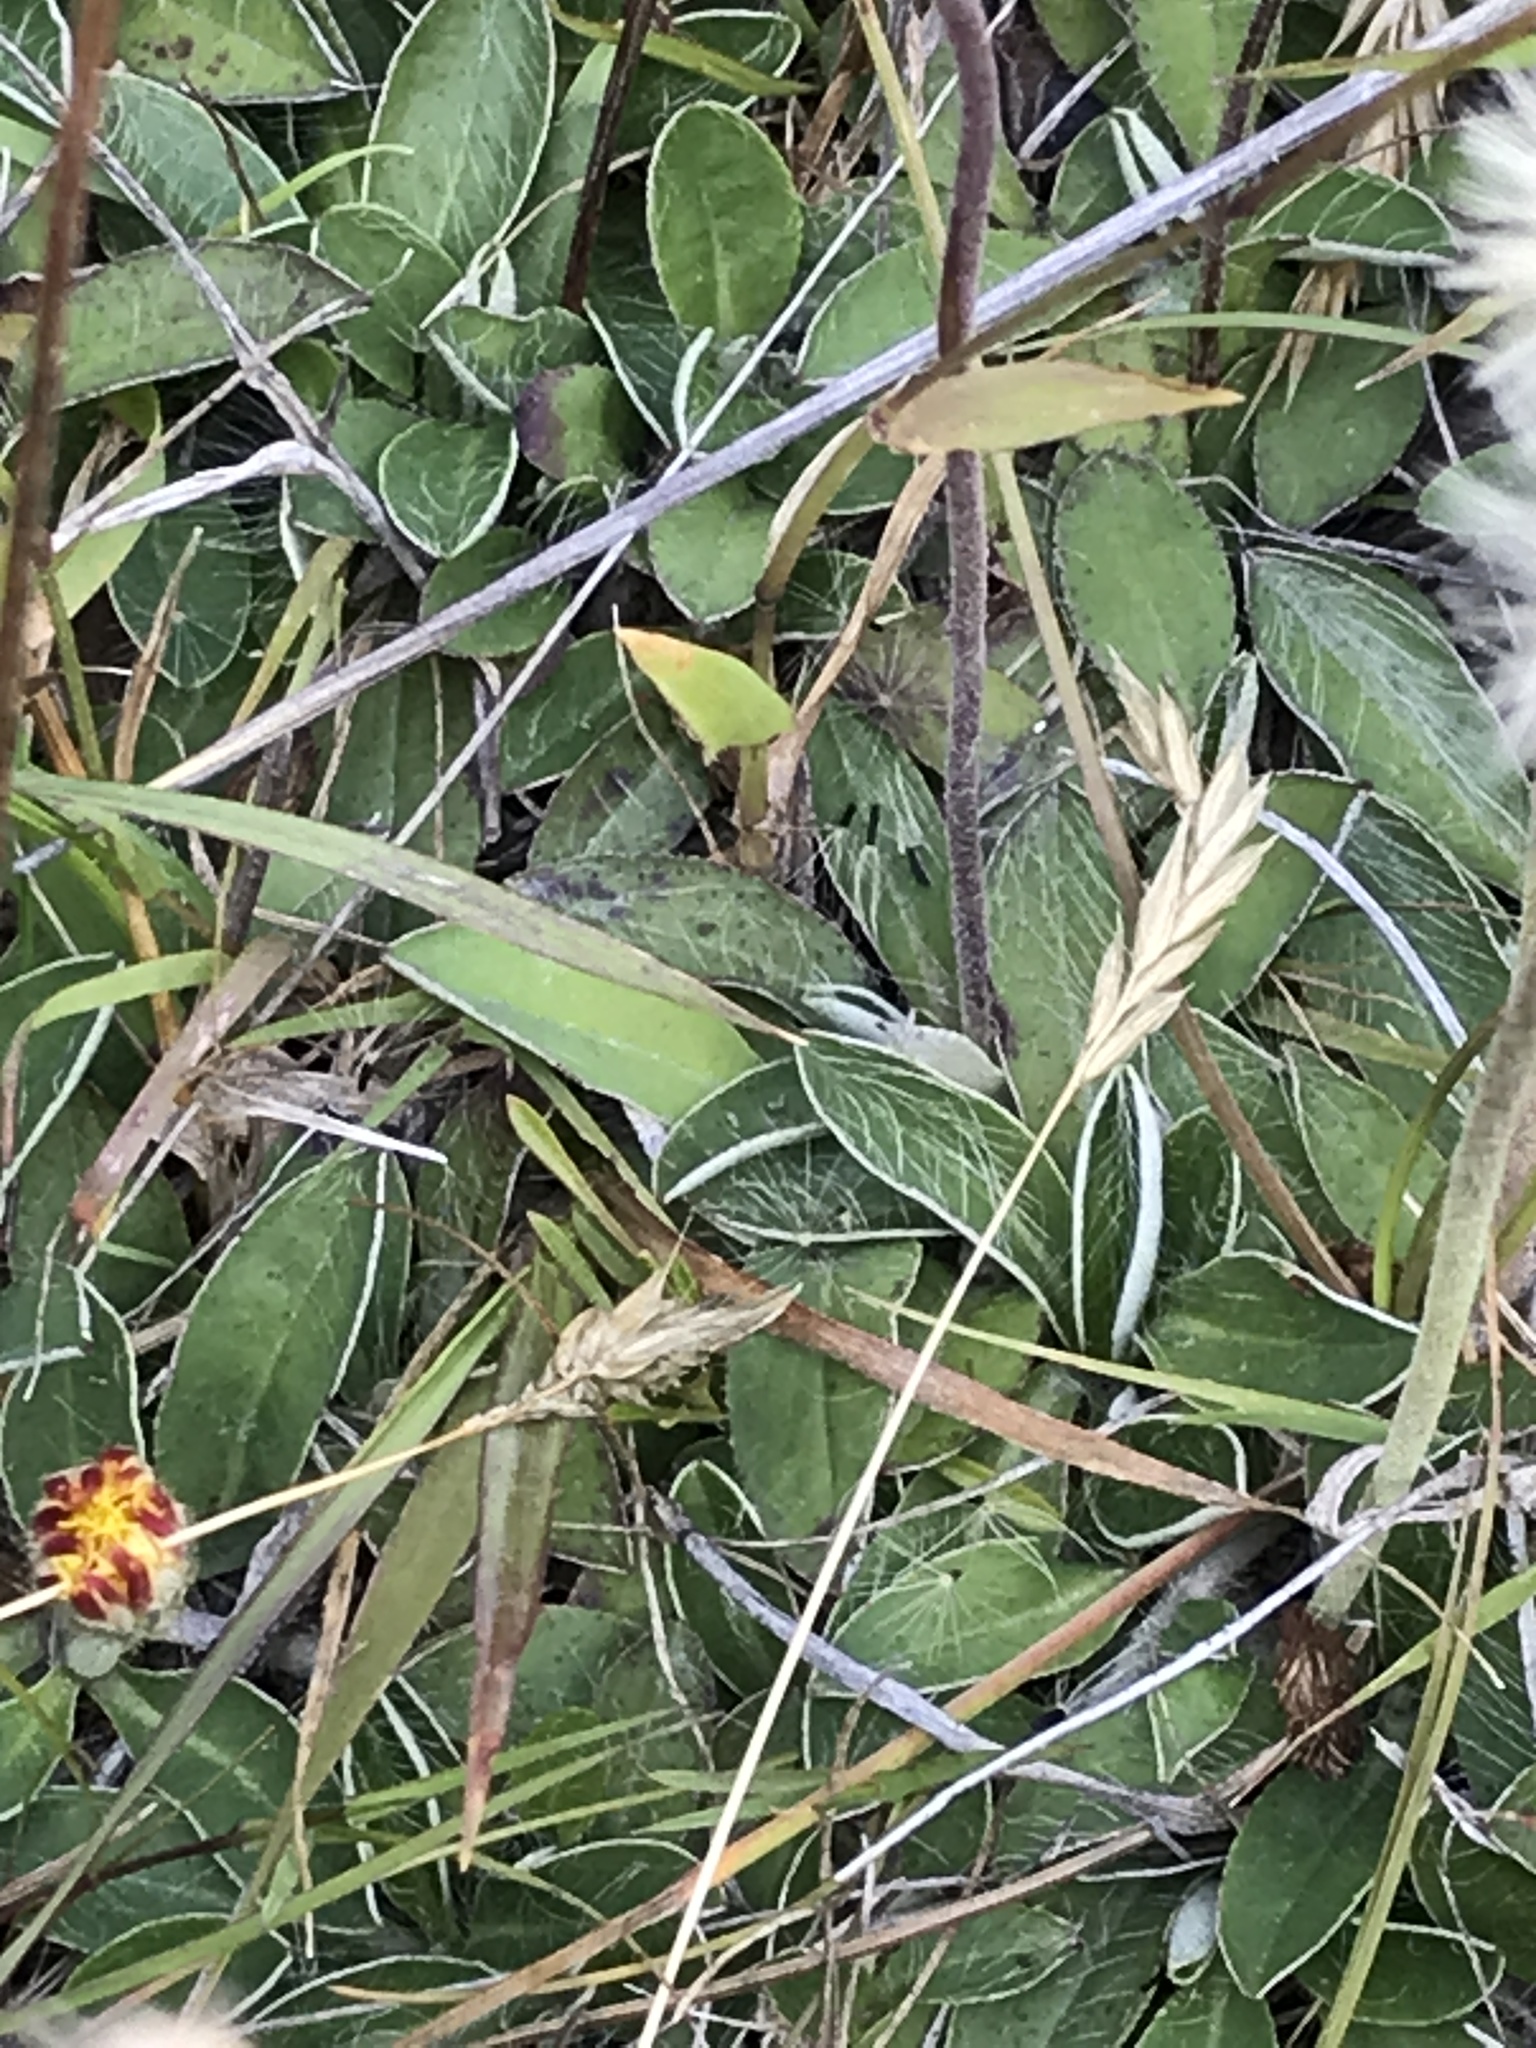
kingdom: Plantae
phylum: Tracheophyta
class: Magnoliopsida
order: Asterales
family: Asteraceae
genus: Pilosella
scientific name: Pilosella officinarum
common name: Mouse-ear hawkweed
